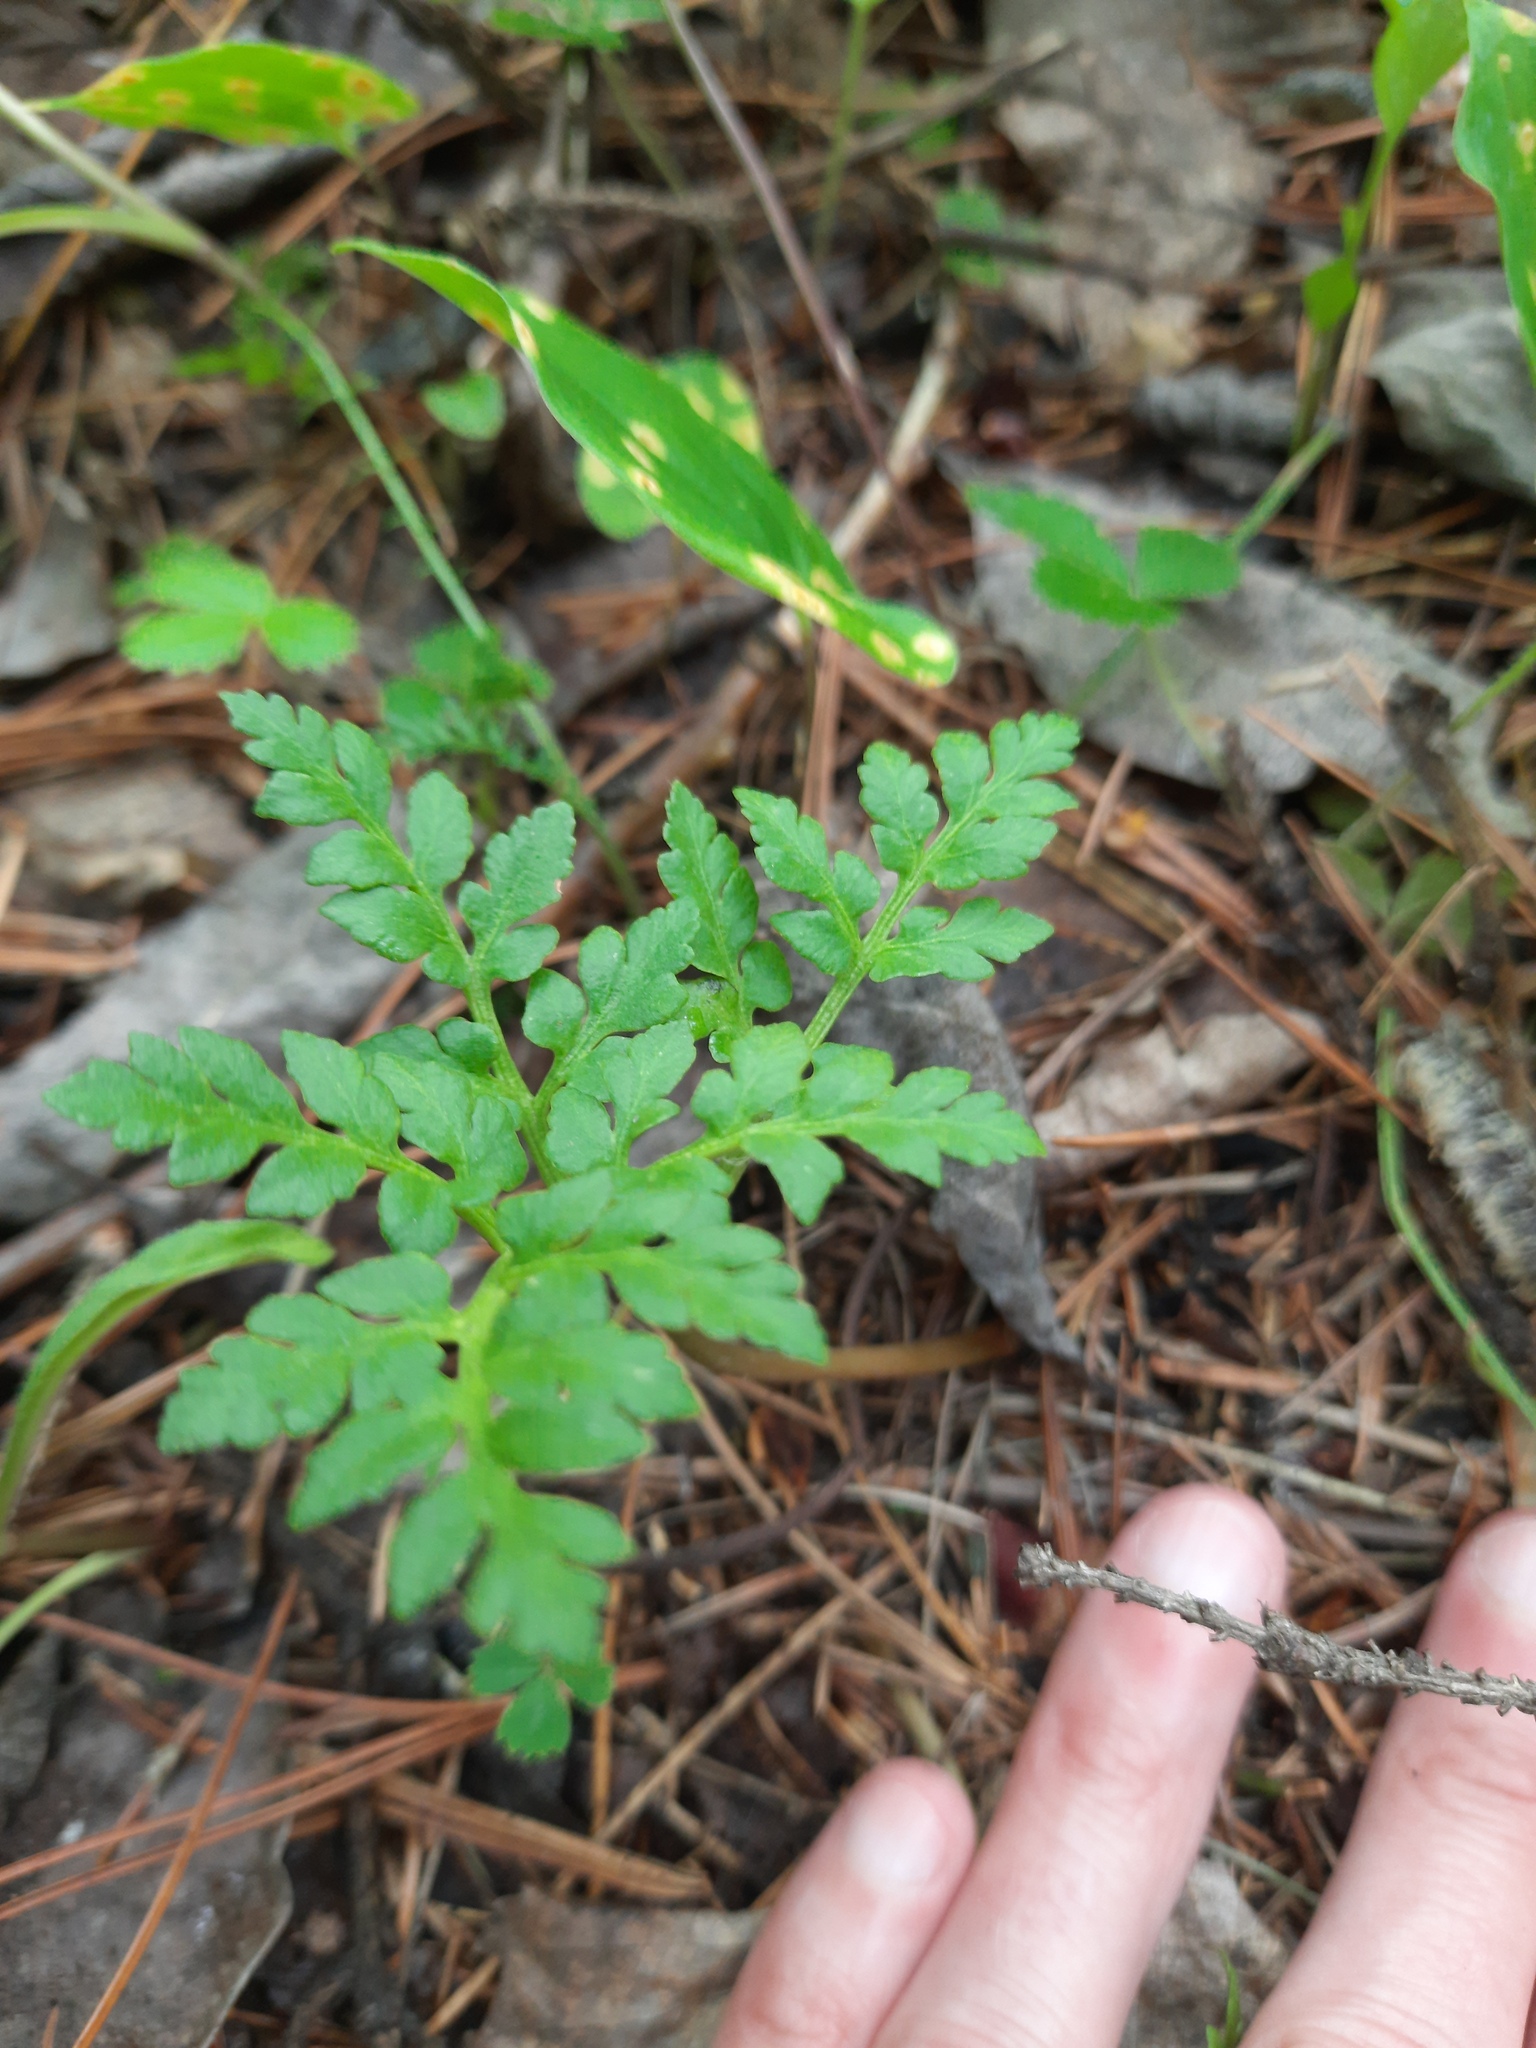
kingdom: Plantae
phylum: Tracheophyta
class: Polypodiopsida
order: Ophioglossales
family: Ophioglossaceae
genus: Sceptridium
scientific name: Sceptridium multifidum
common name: Leathery grape fern
